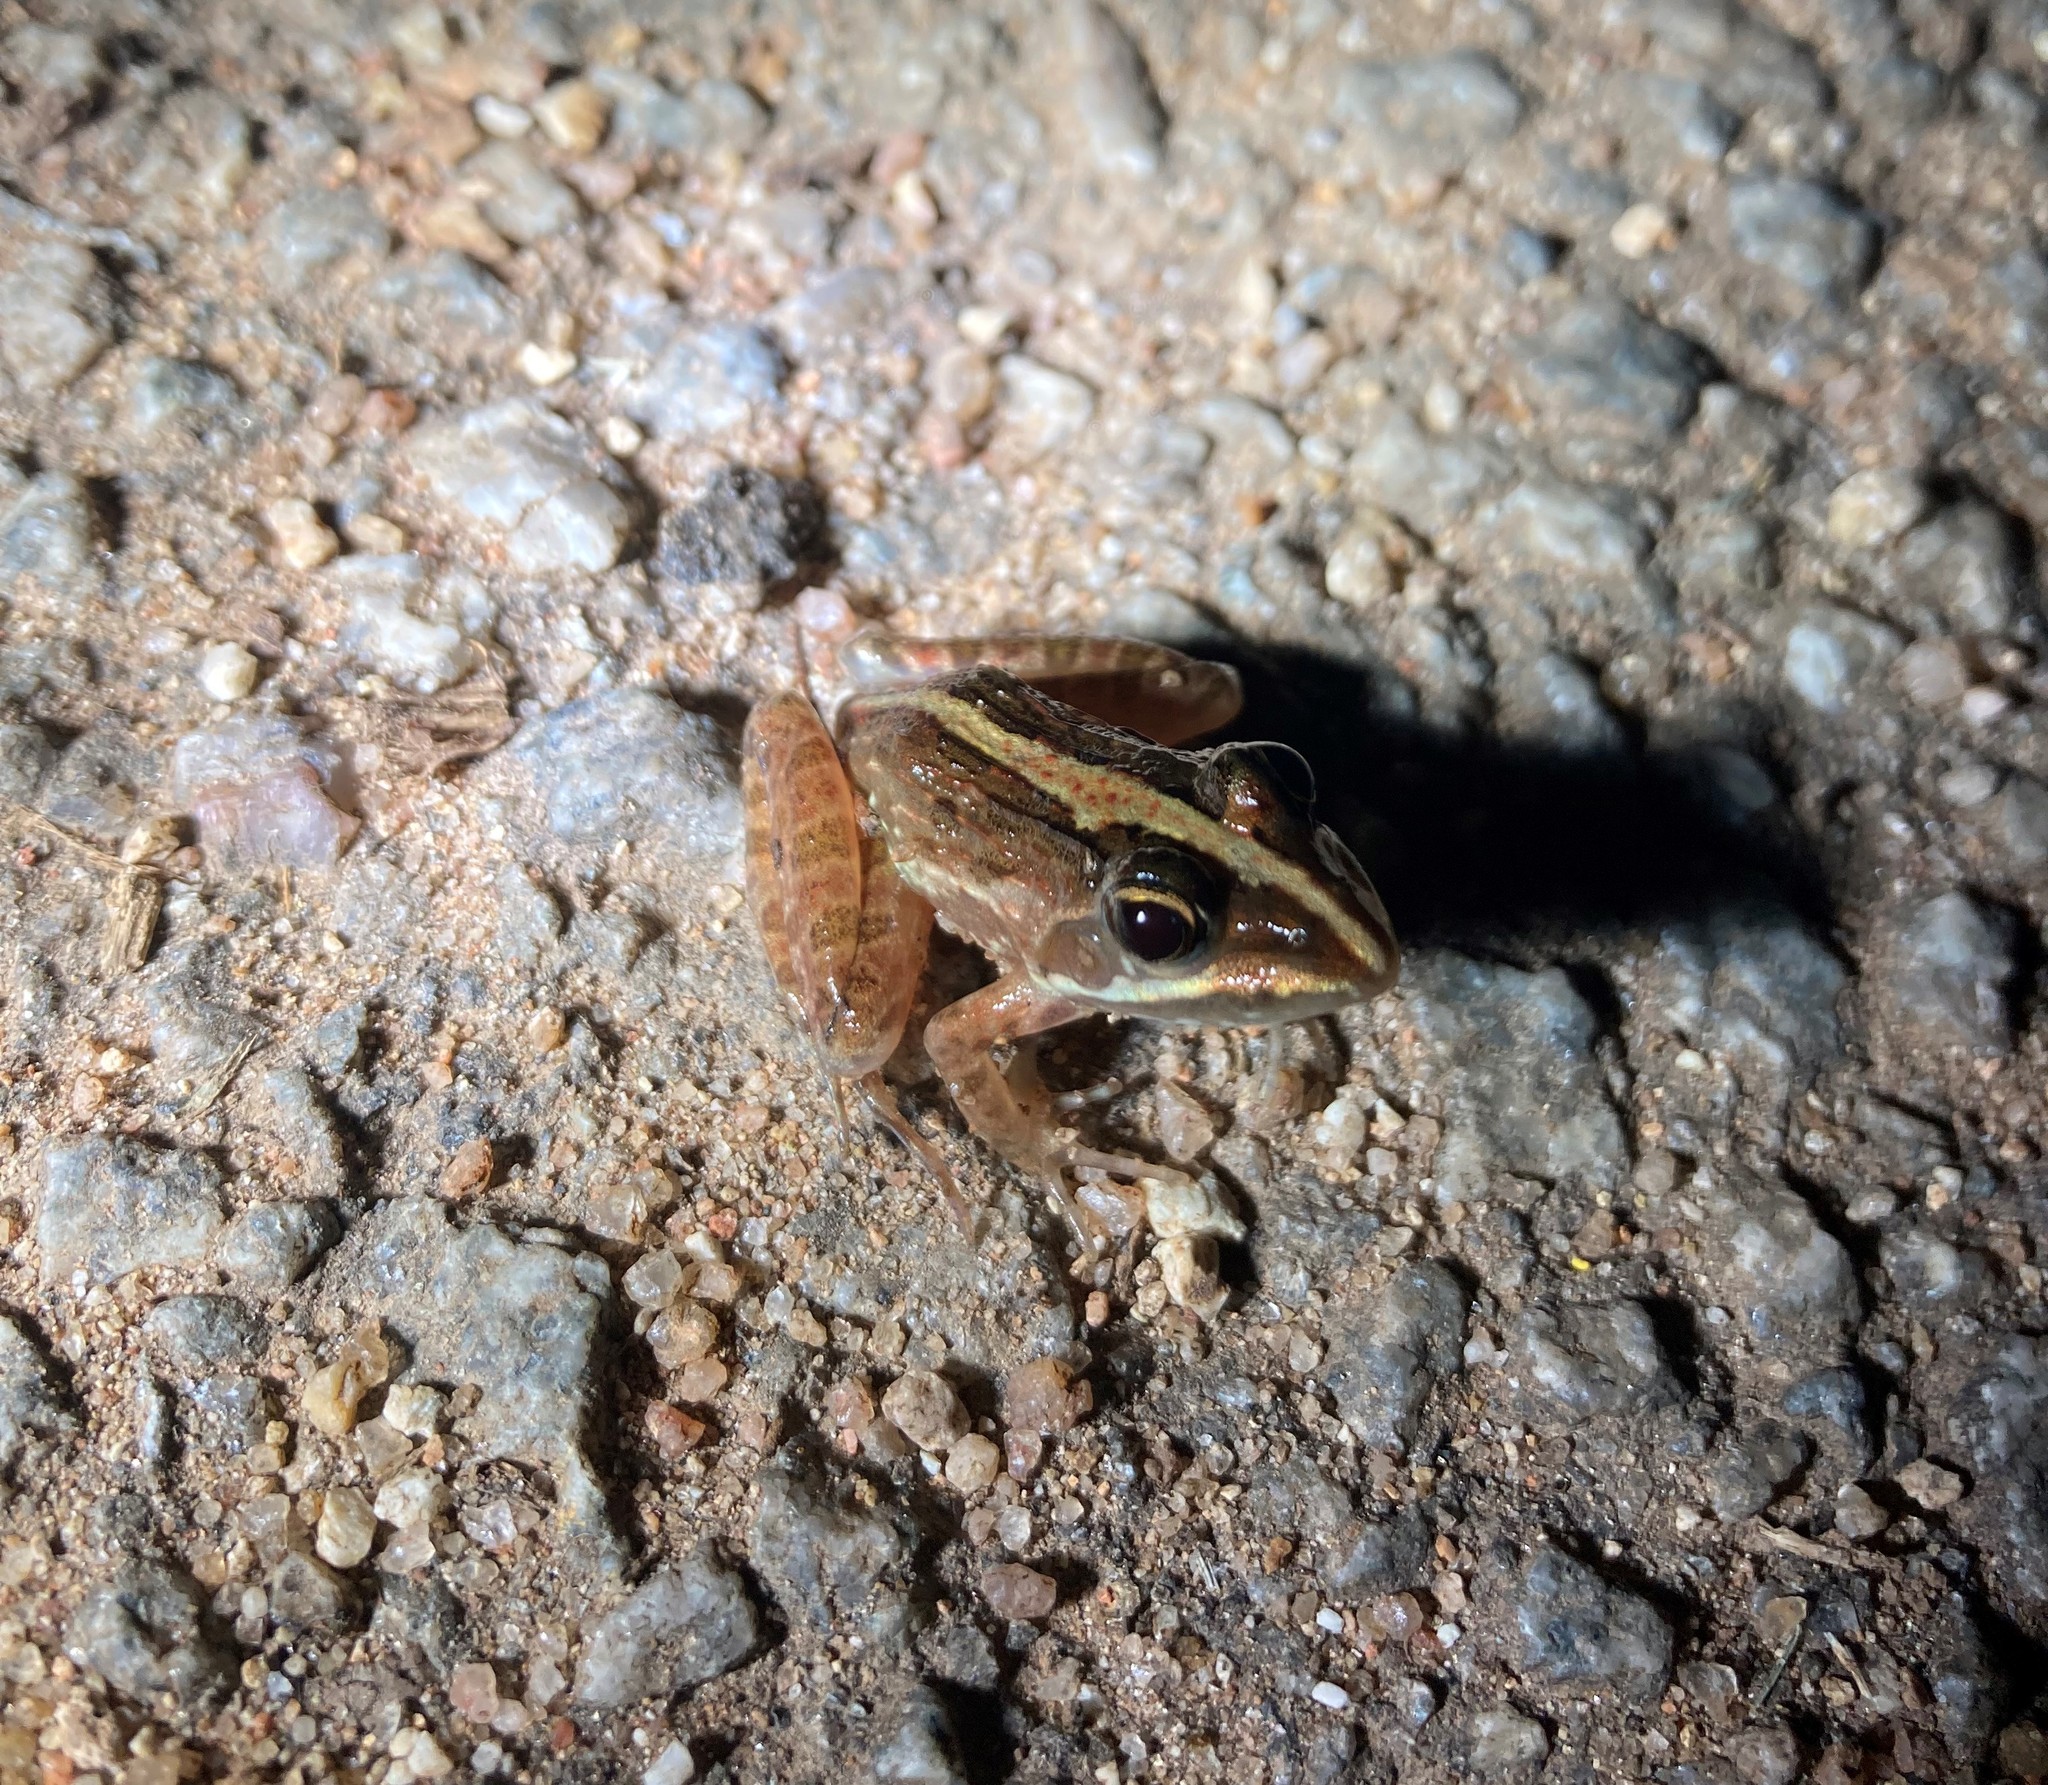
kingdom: Animalia
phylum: Chordata
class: Amphibia
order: Anura
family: Pyxicephalidae
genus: Amietia
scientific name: Amietia delalandii
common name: Delalande's river frog
